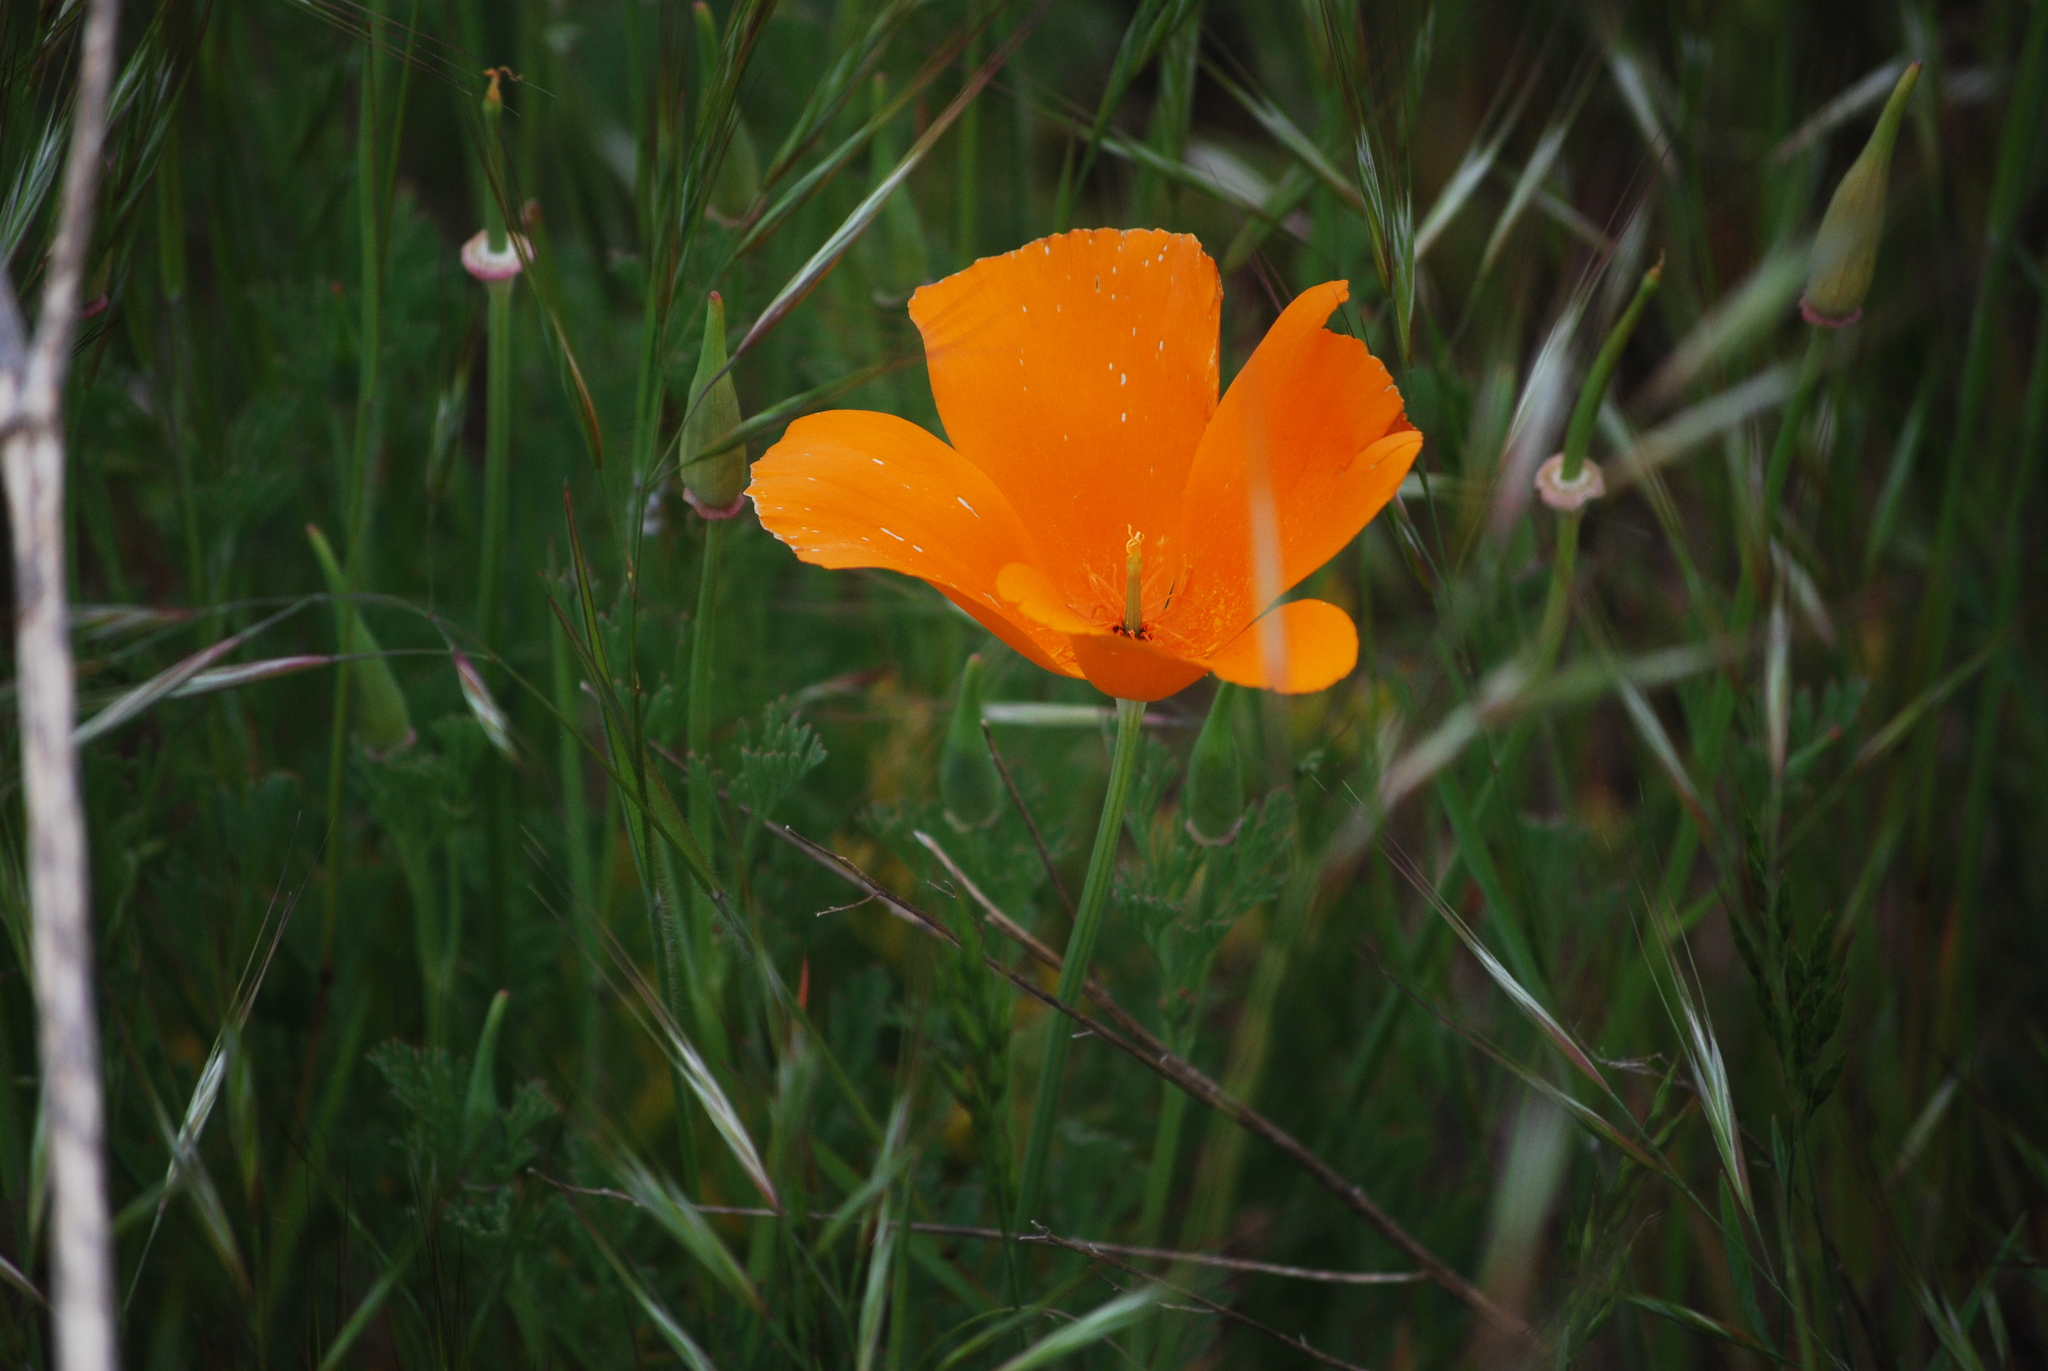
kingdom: Plantae
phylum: Tracheophyta
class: Magnoliopsida
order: Ranunculales
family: Papaveraceae
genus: Eschscholzia
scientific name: Eschscholzia californica
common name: California poppy
